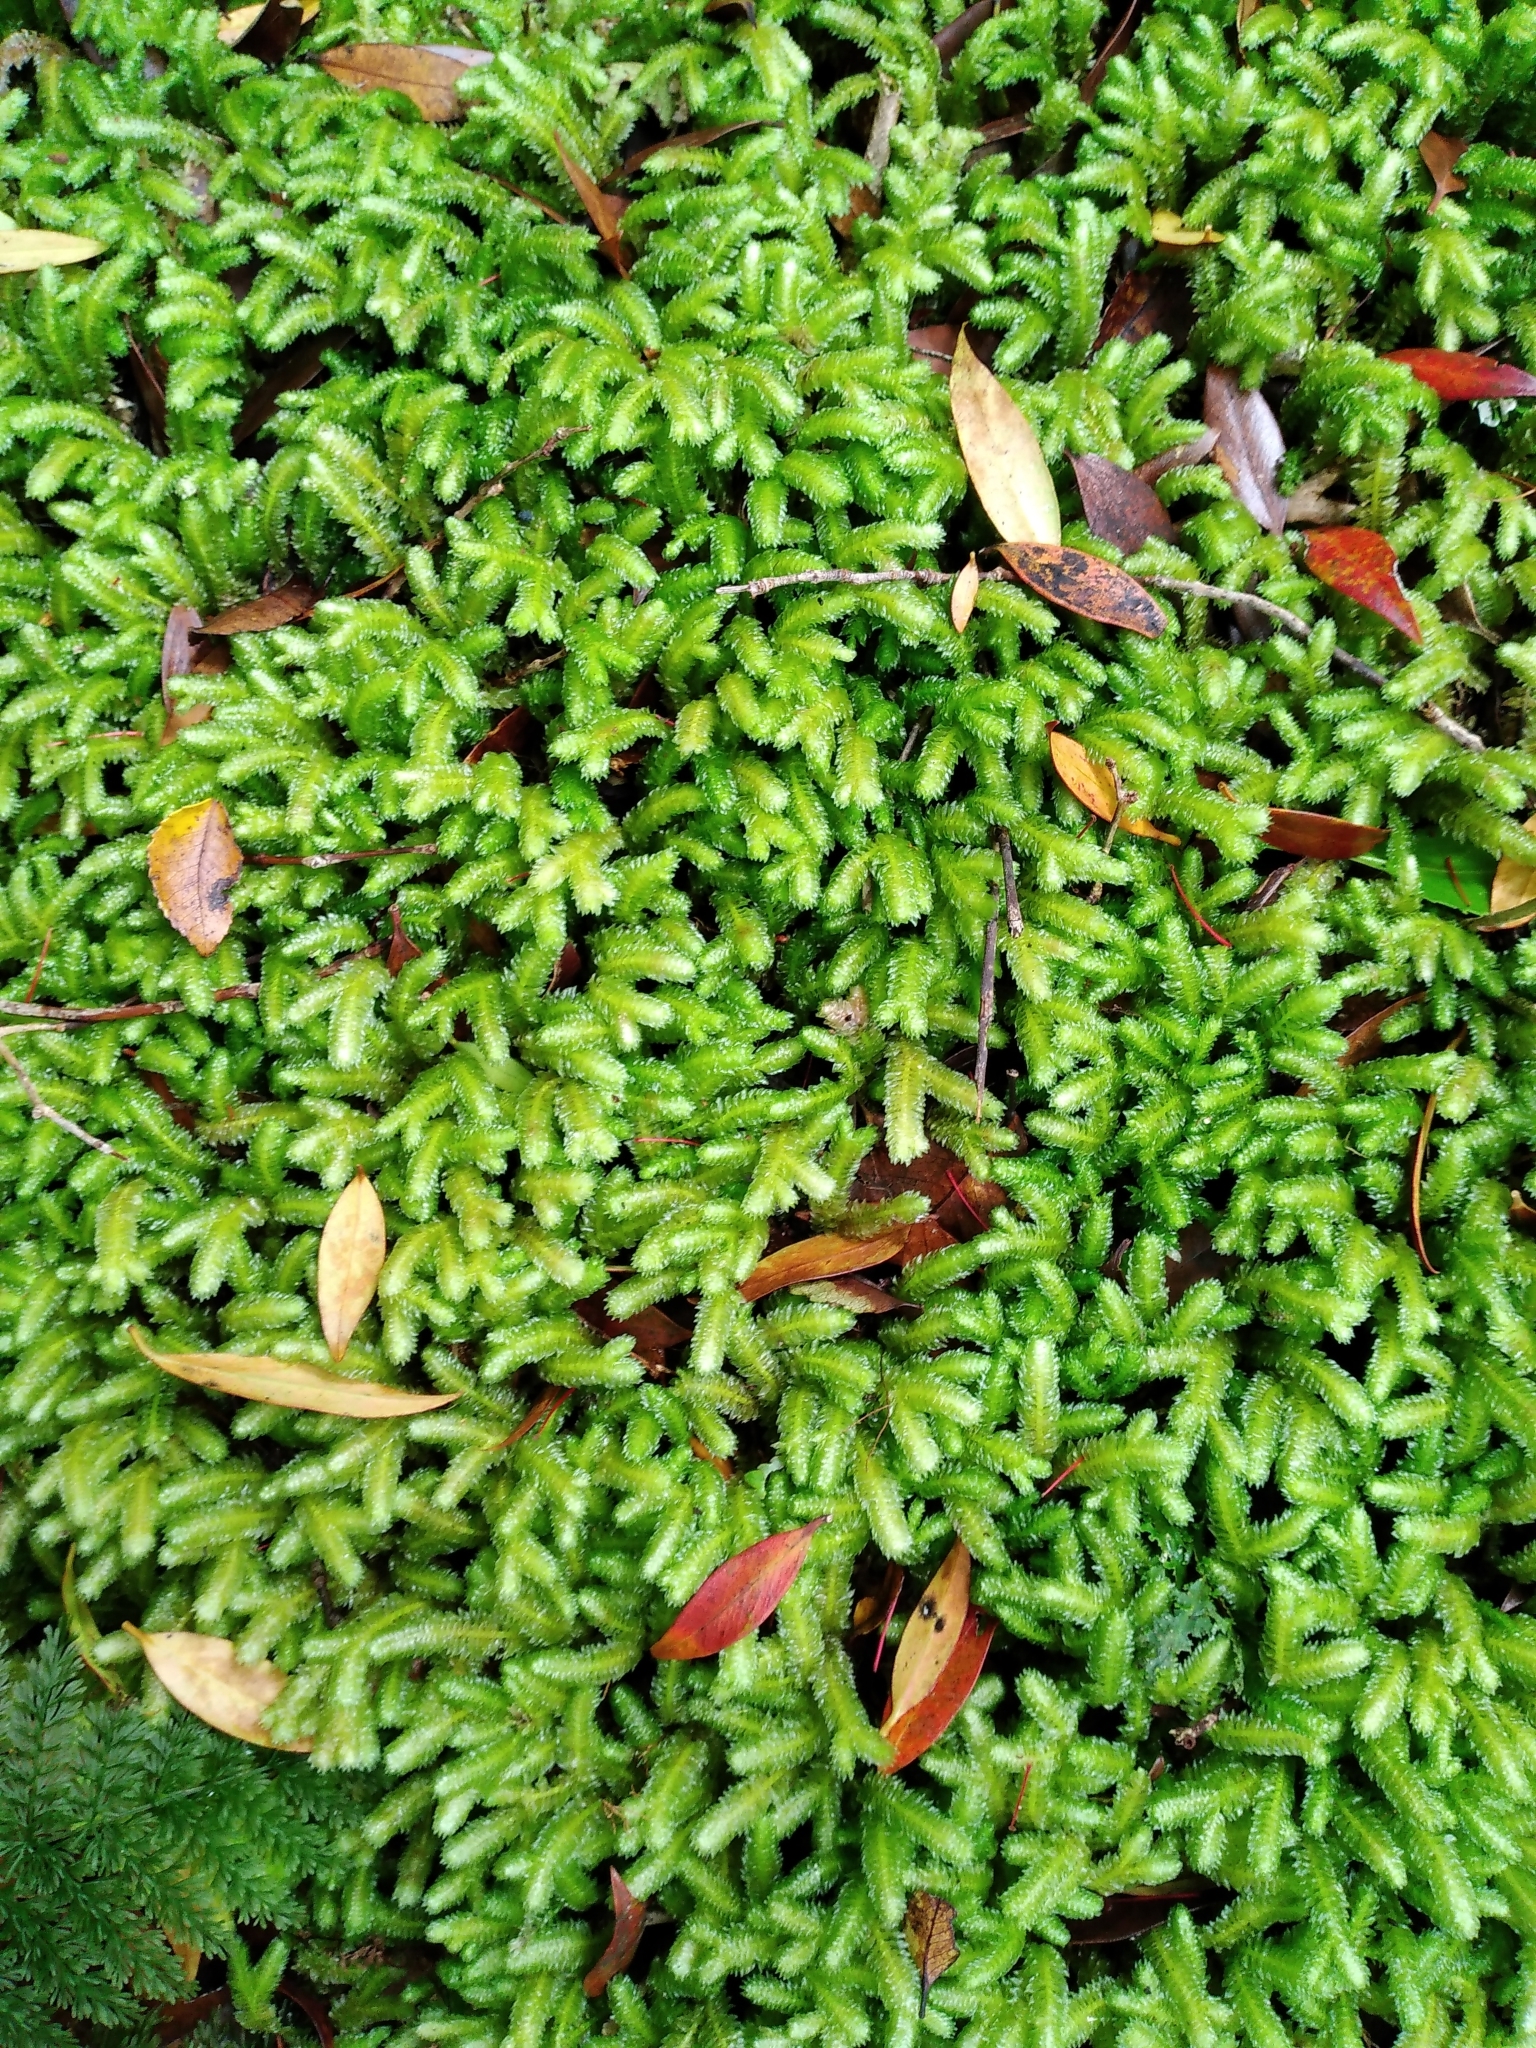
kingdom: Plantae
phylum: Marchantiophyta
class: Jungermanniopsida
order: Jungermanniales
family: Schistochilaceae
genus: Schistochila
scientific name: Schistochila nobilis
